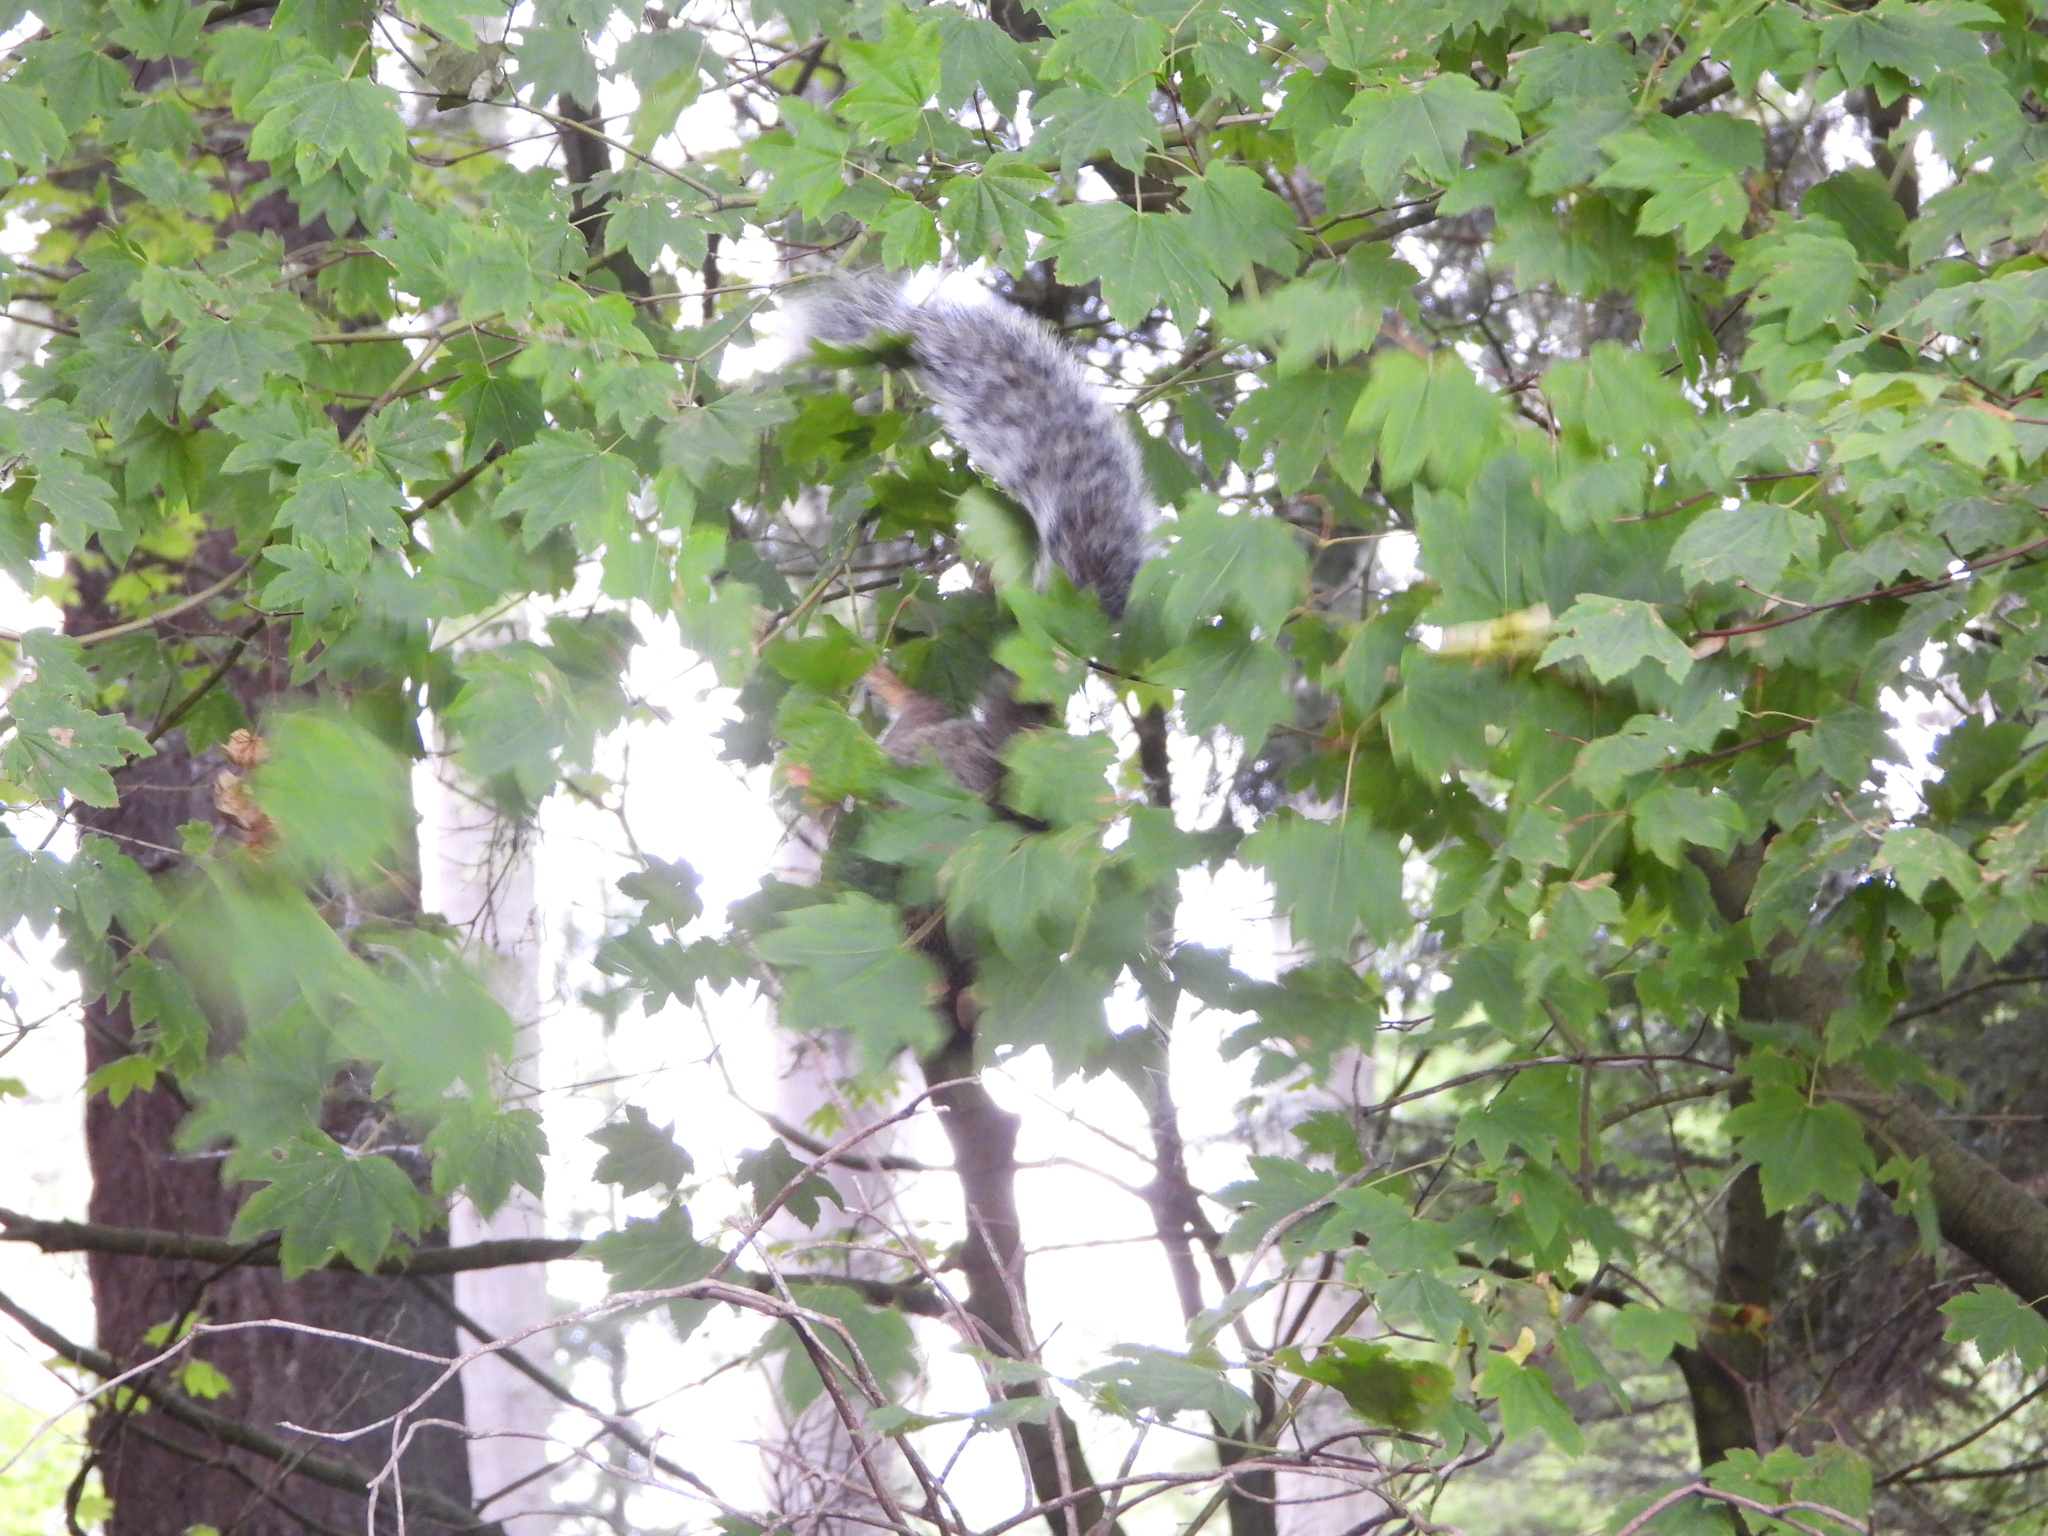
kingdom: Animalia
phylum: Chordata
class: Mammalia
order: Rodentia
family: Sciuridae
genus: Sciurus
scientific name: Sciurus carolinensis
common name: Eastern gray squirrel
